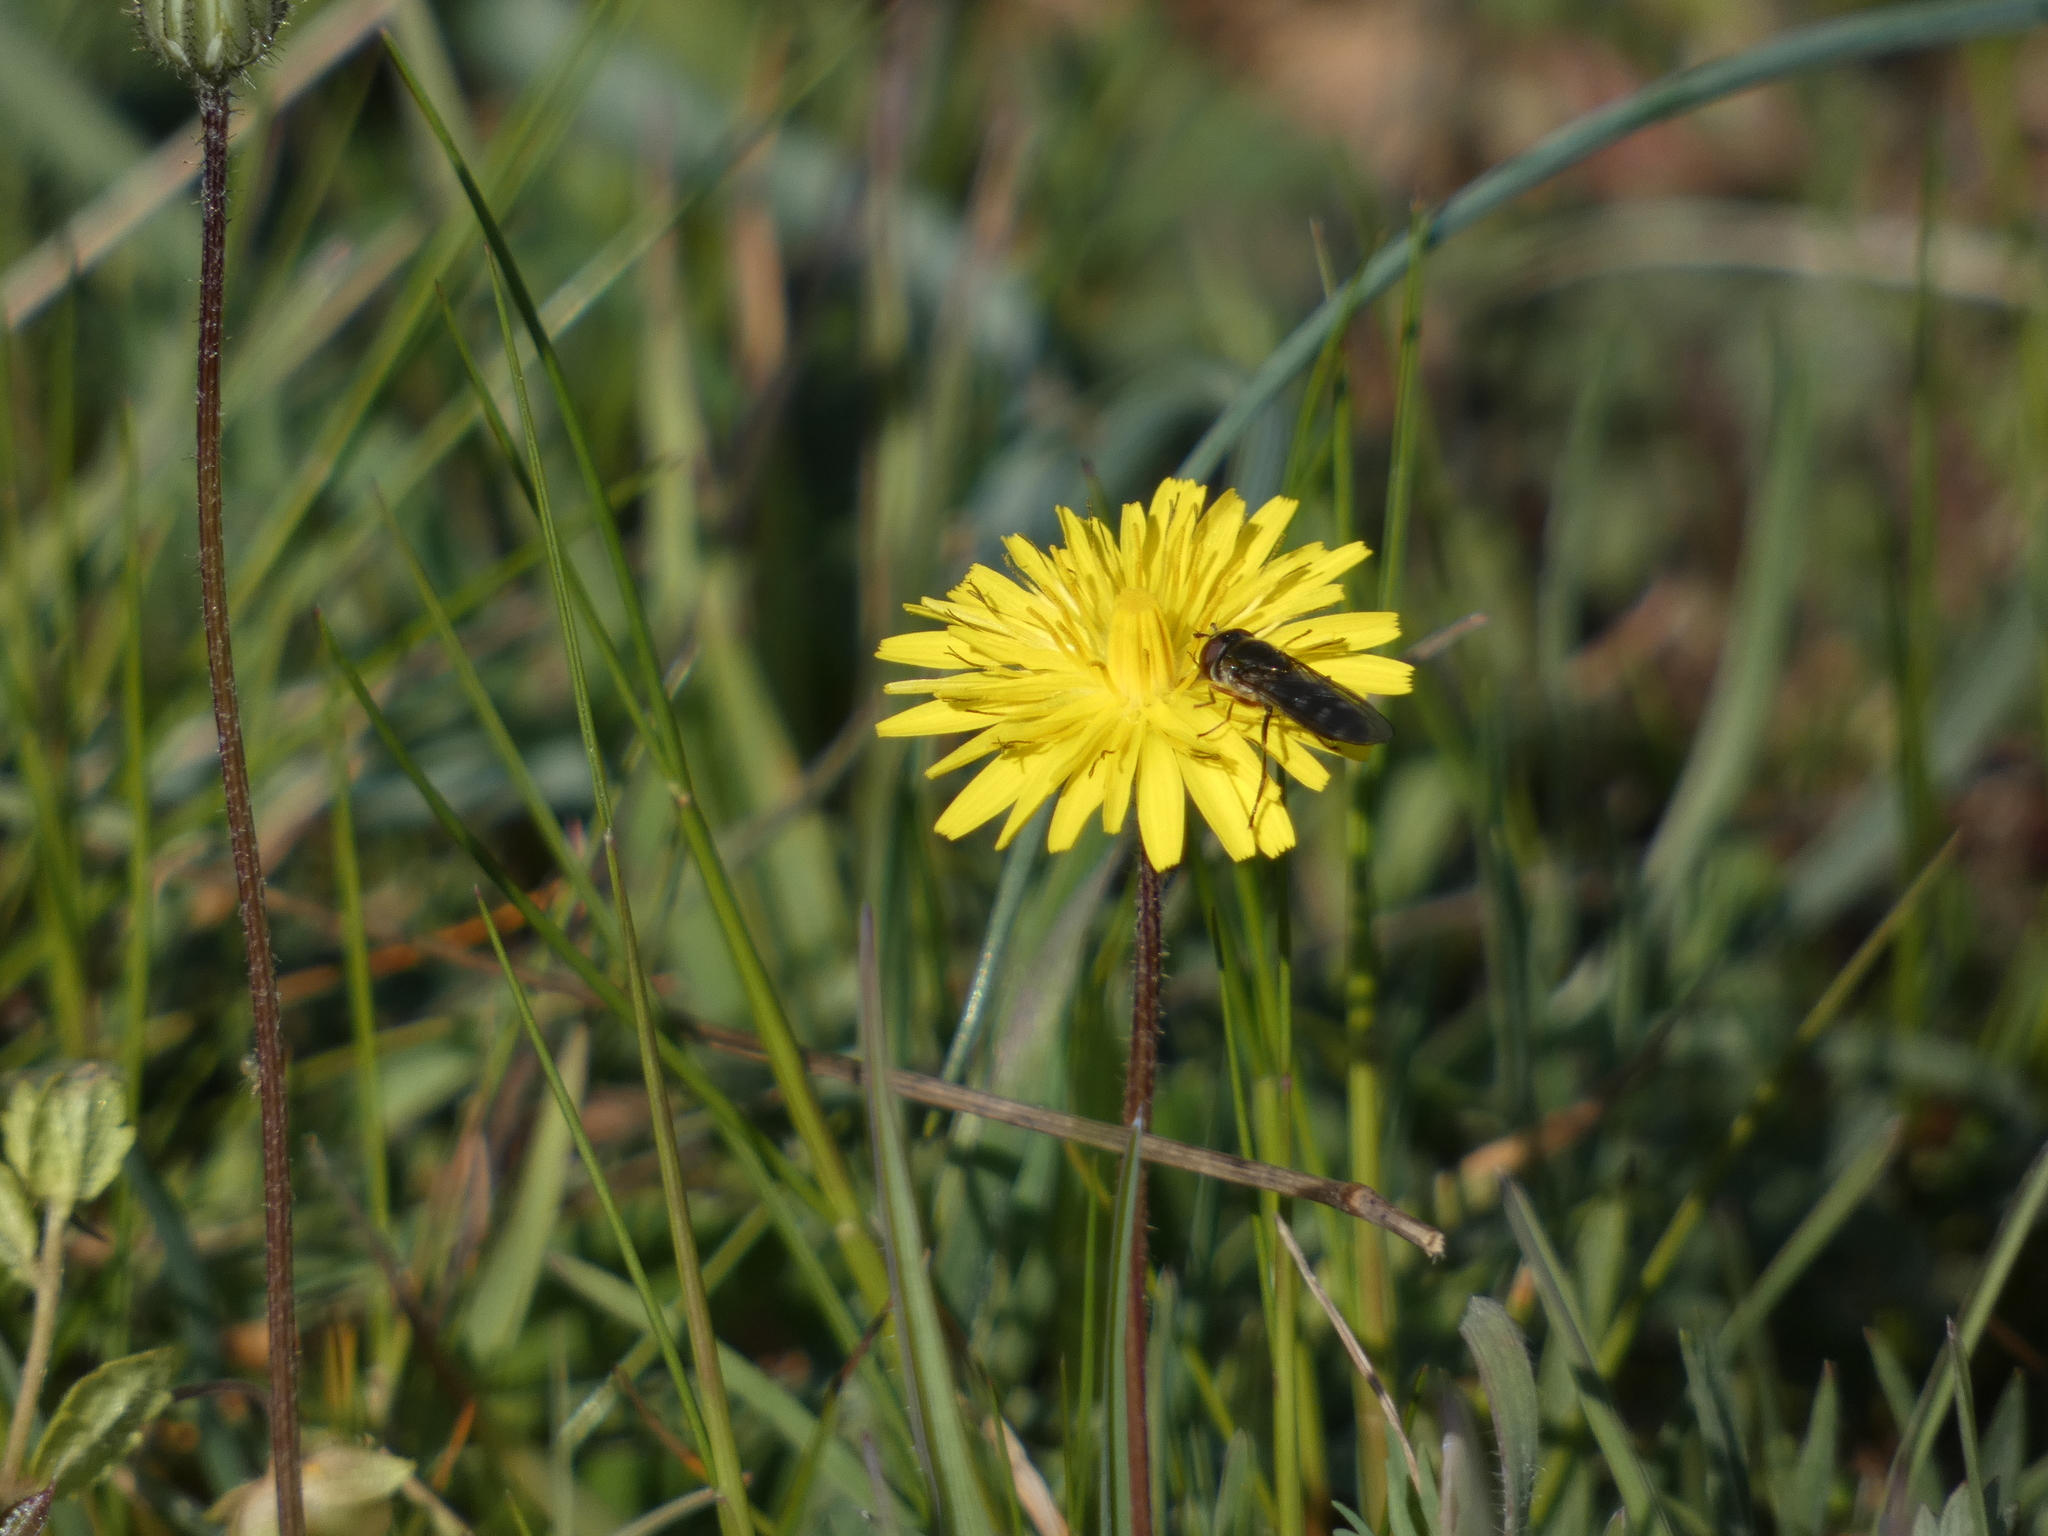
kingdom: Animalia
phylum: Arthropoda
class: Insecta
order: Diptera
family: Syrphidae
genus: Meliscaeva
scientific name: Meliscaeva auricollis
